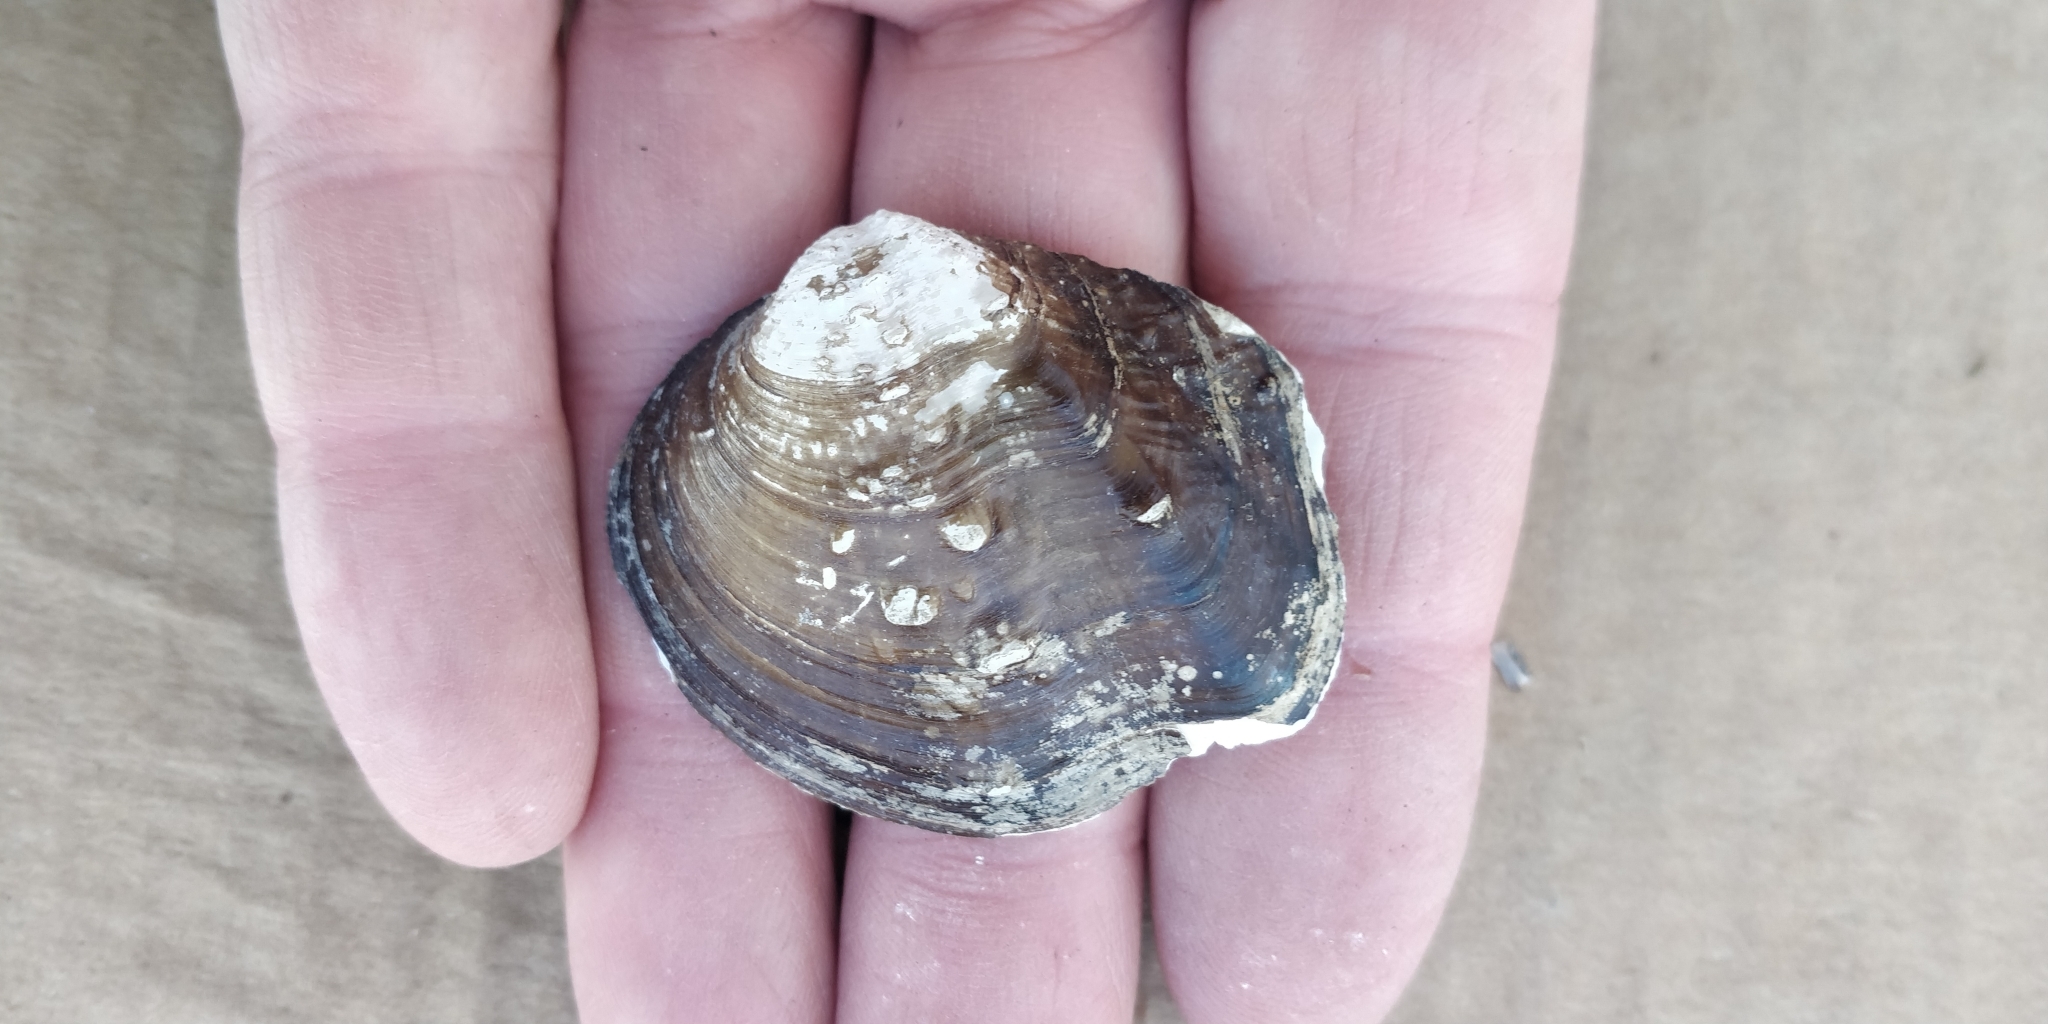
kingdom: Animalia
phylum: Mollusca
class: Bivalvia
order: Unionida
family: Unionidae
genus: Quadrula
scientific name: Quadrula quadrula
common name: Mapleleaf
